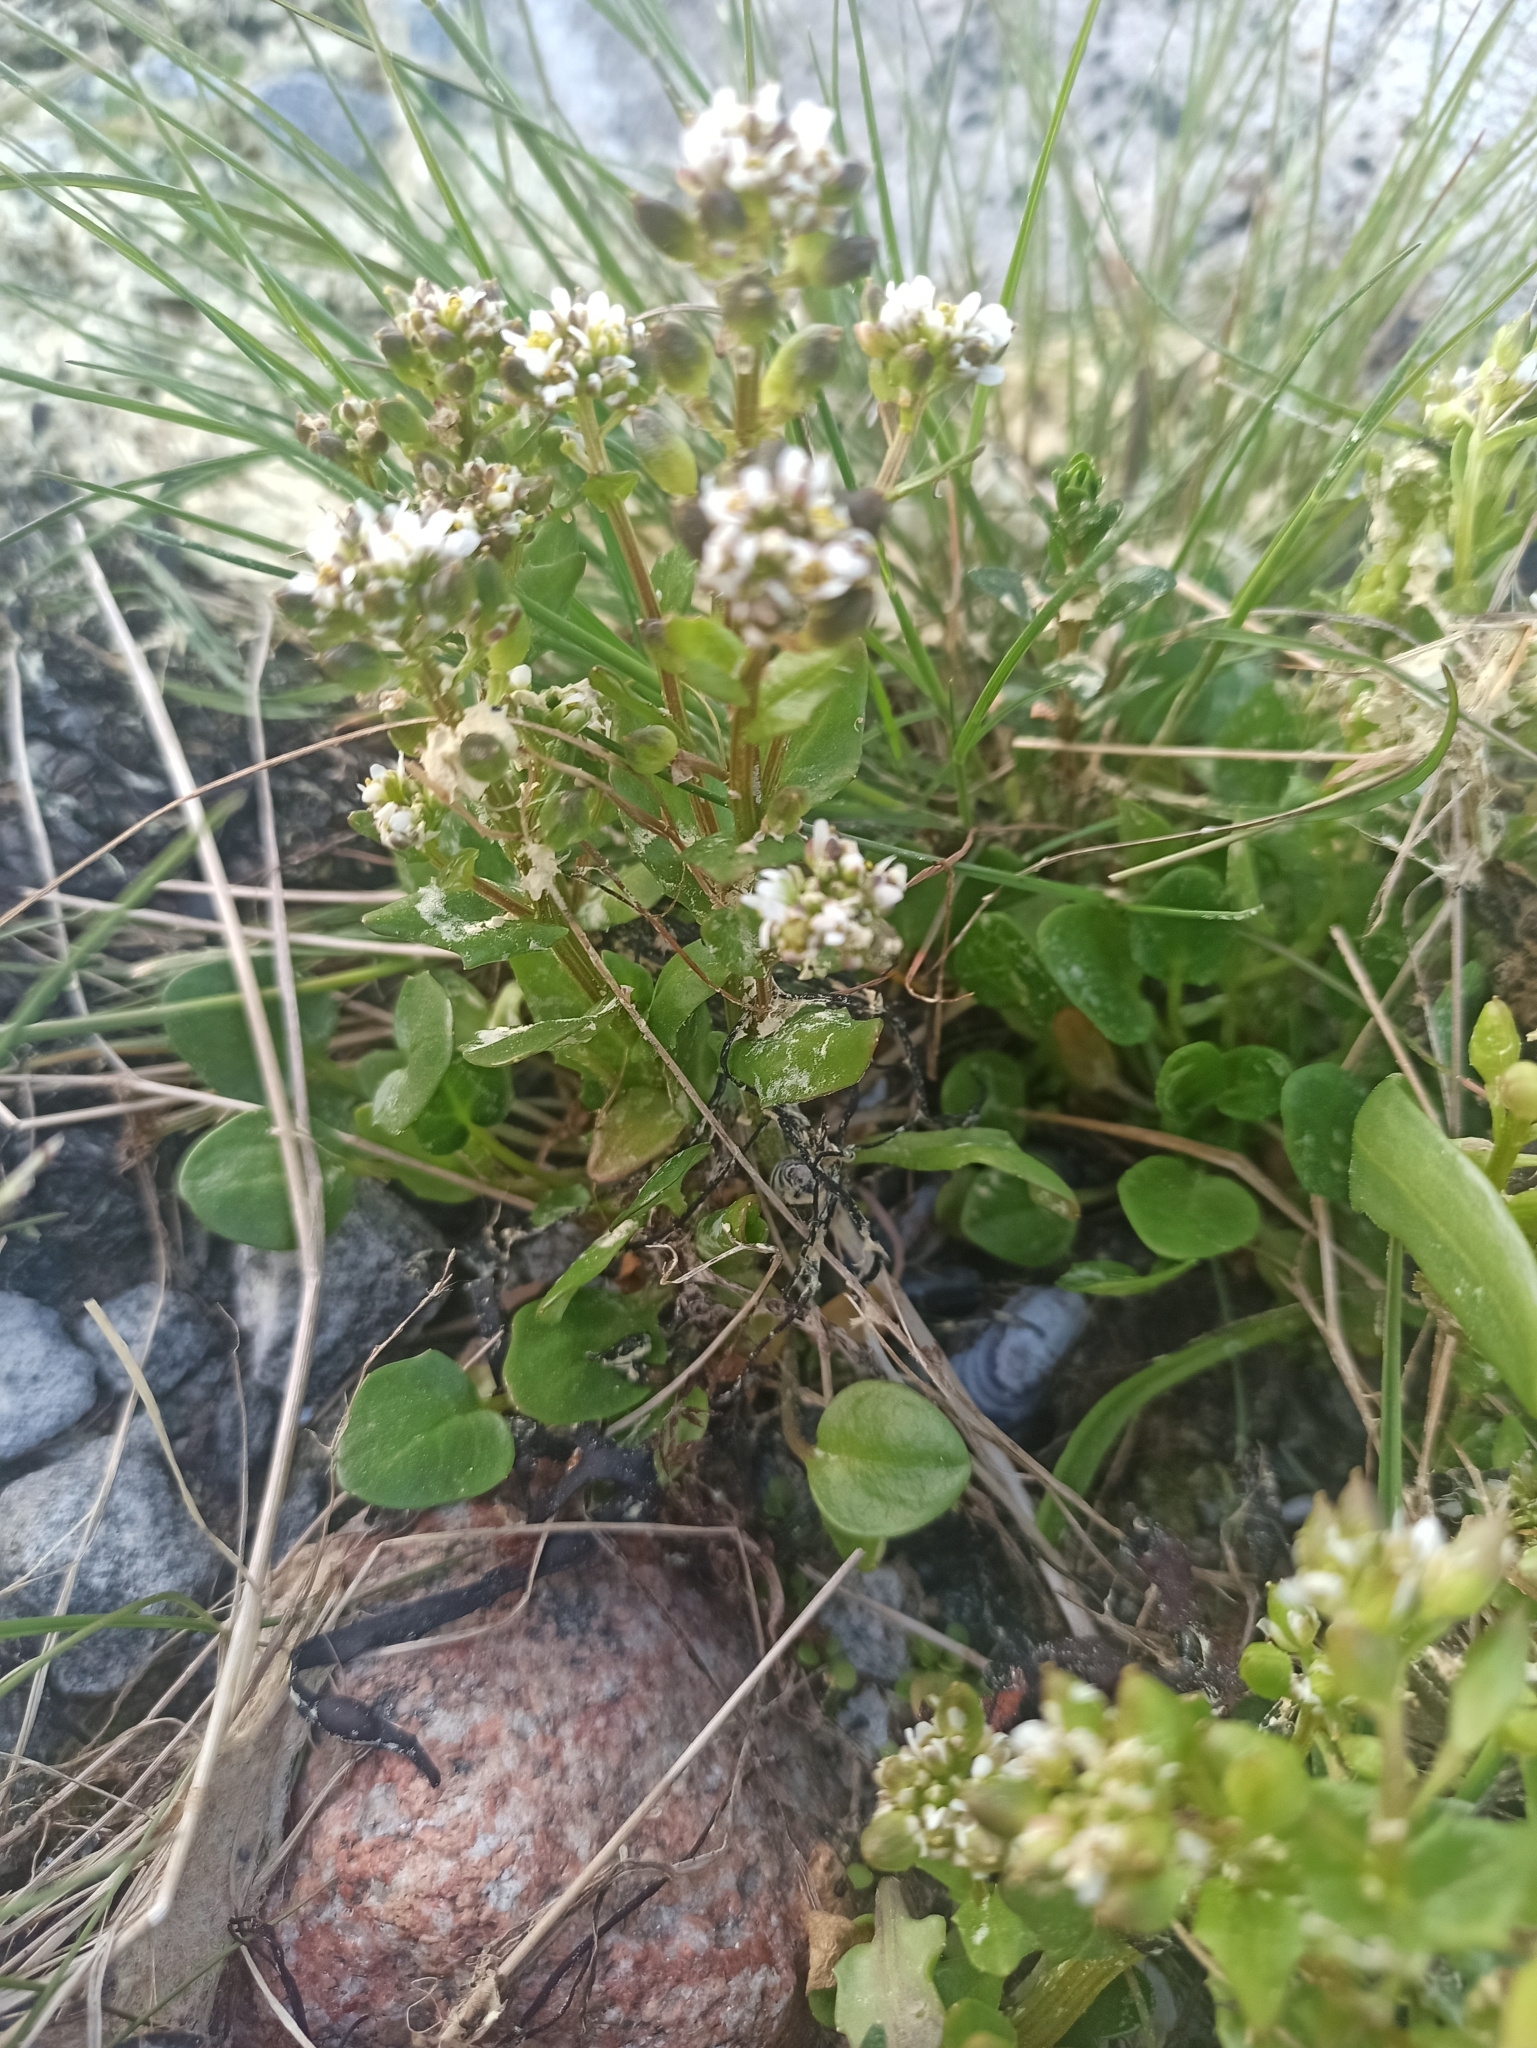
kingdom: Plantae
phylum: Tracheophyta
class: Magnoliopsida
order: Brassicales
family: Brassicaceae
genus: Cochlearia
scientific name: Cochlearia officinalis
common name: Scurvy-grass
